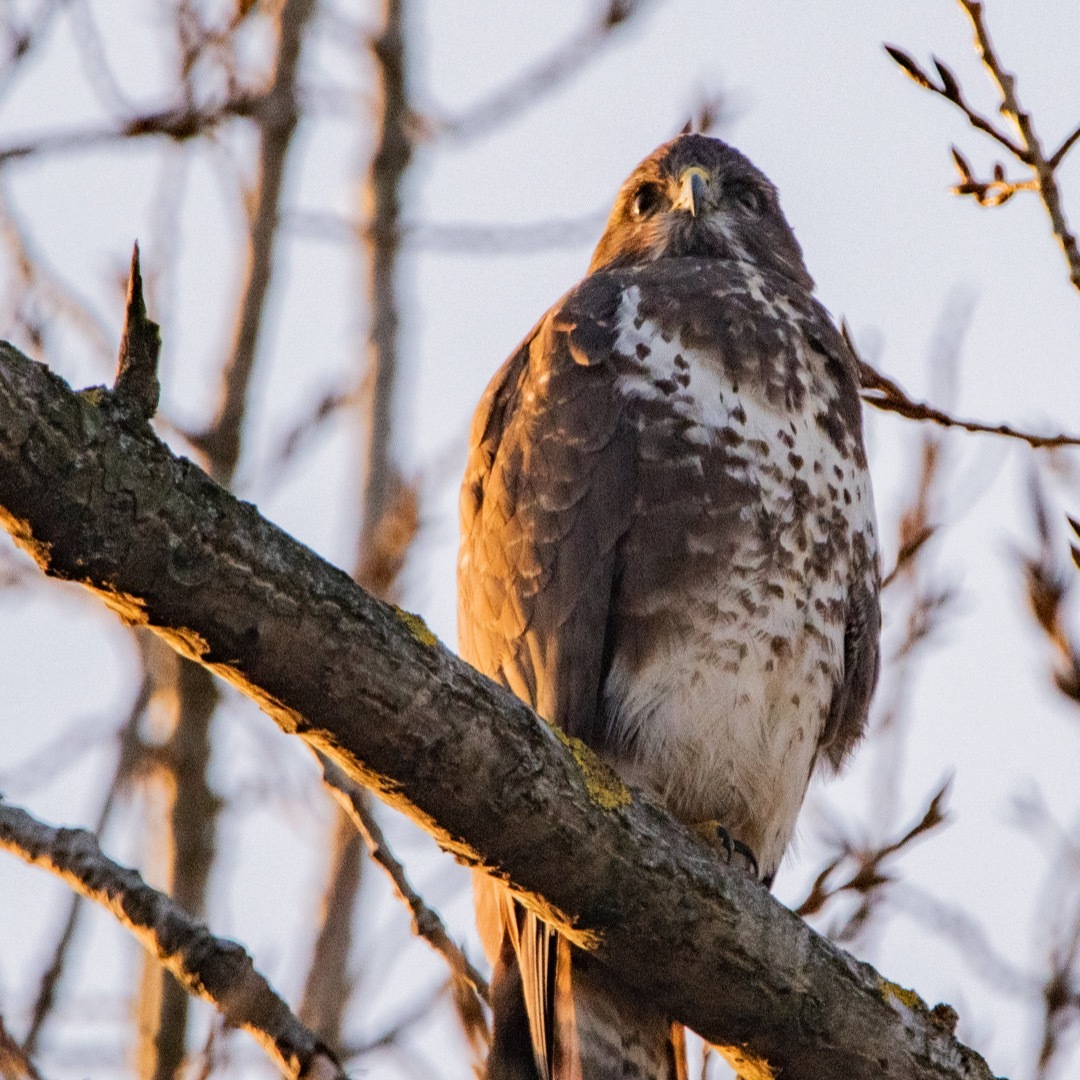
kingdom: Animalia
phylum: Chordata
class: Aves
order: Accipitriformes
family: Accipitridae
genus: Buteo
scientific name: Buteo buteo
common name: Common buzzard
